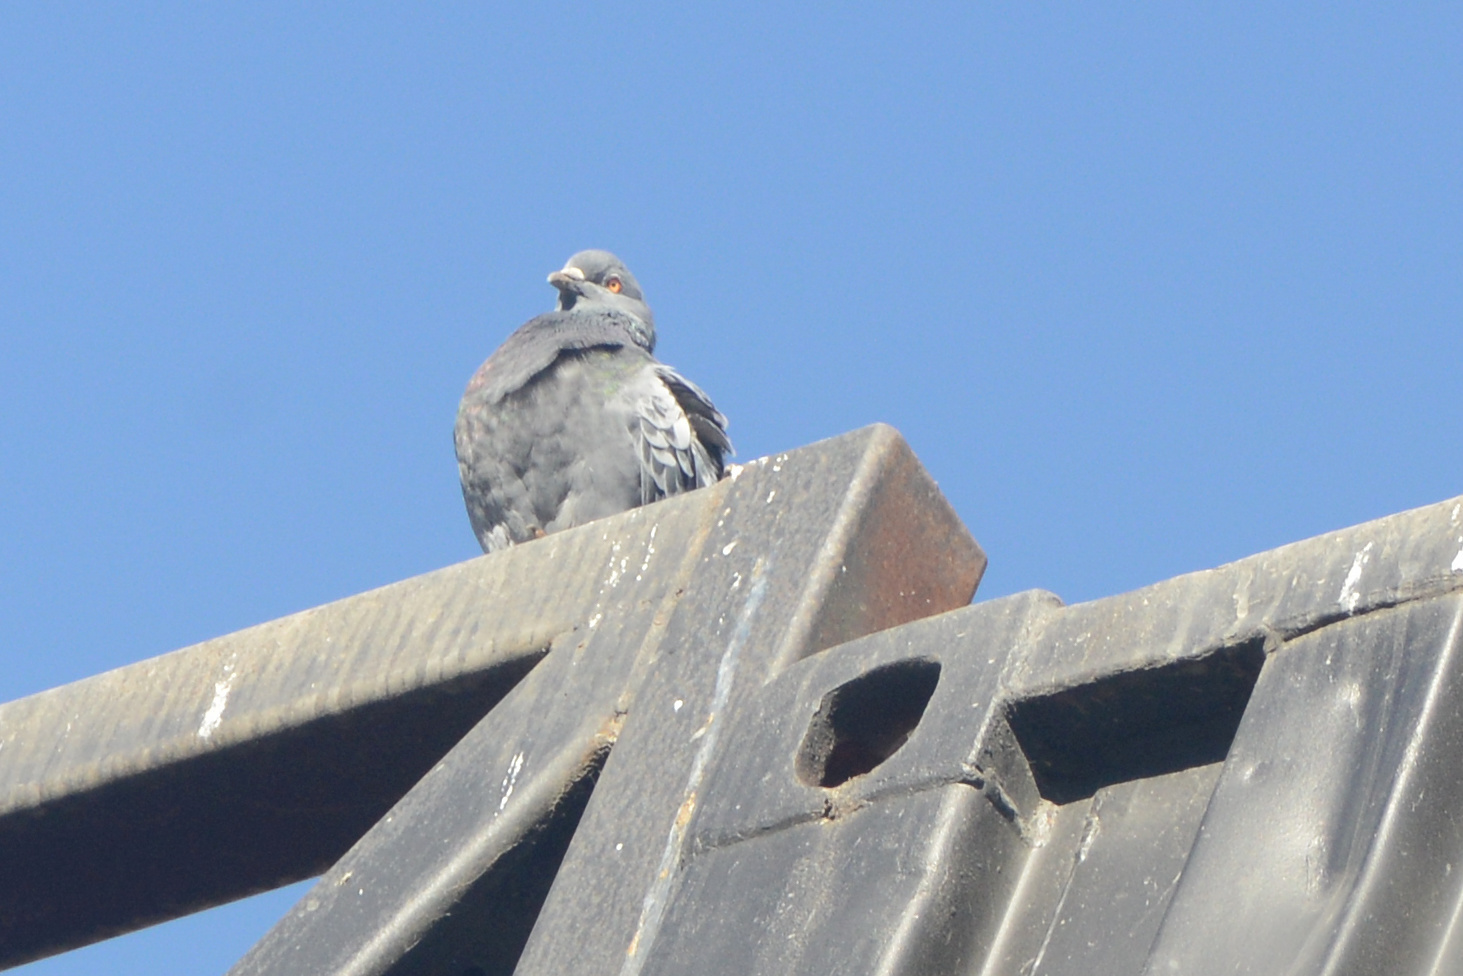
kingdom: Animalia
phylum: Chordata
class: Aves
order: Columbiformes
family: Columbidae
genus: Columba
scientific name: Columba livia
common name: Rock pigeon
